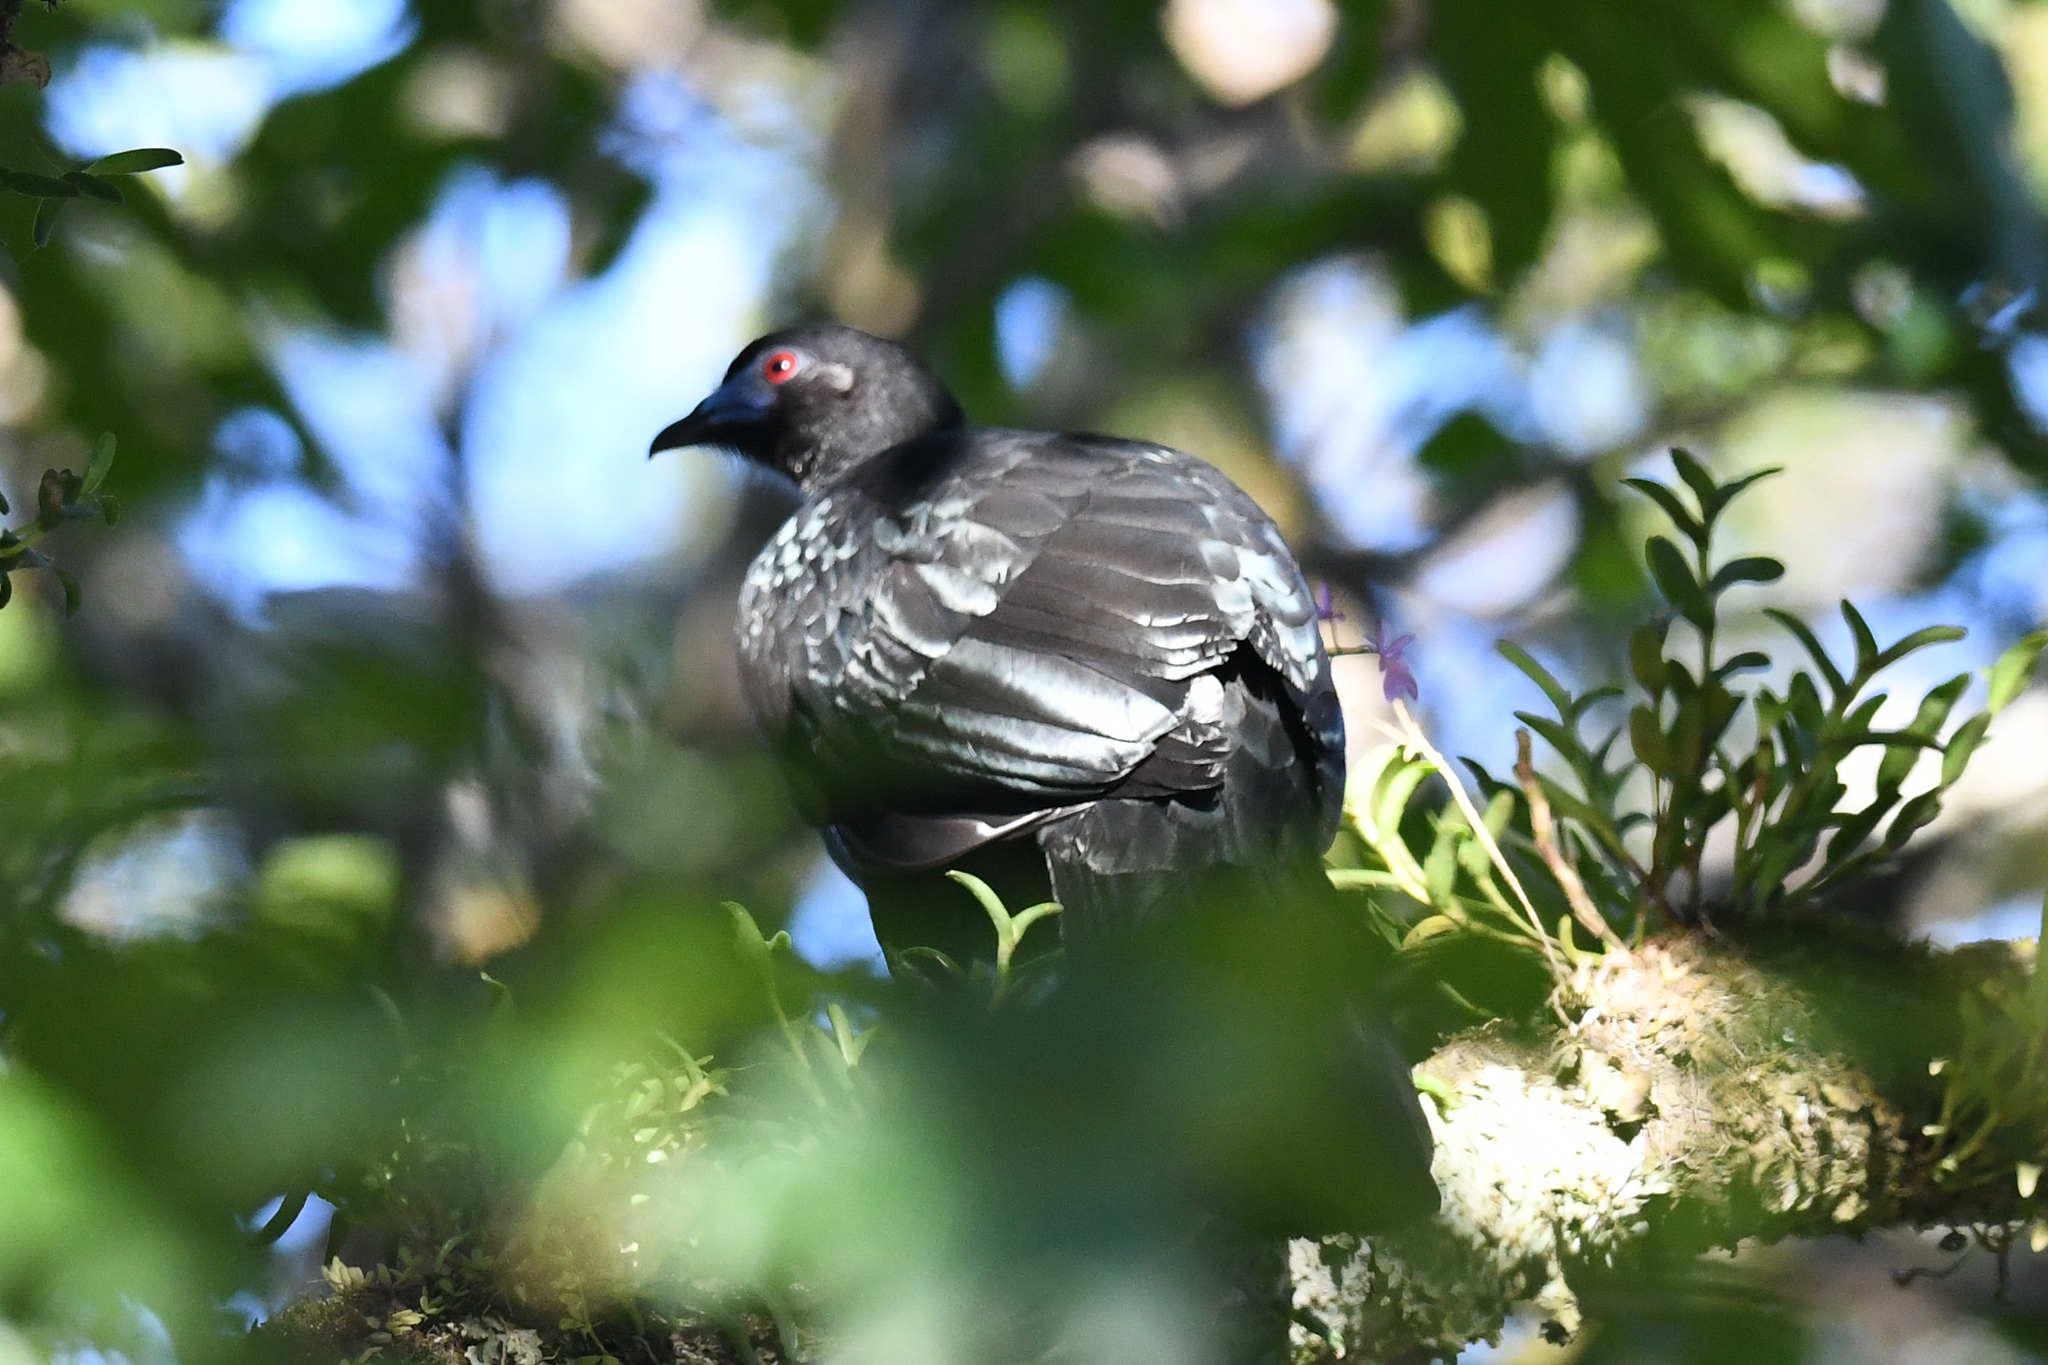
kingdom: Animalia
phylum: Chordata
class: Aves
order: Galliformes
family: Cracidae
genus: Chamaepetes
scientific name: Chamaepetes unicolor
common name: Black guan
